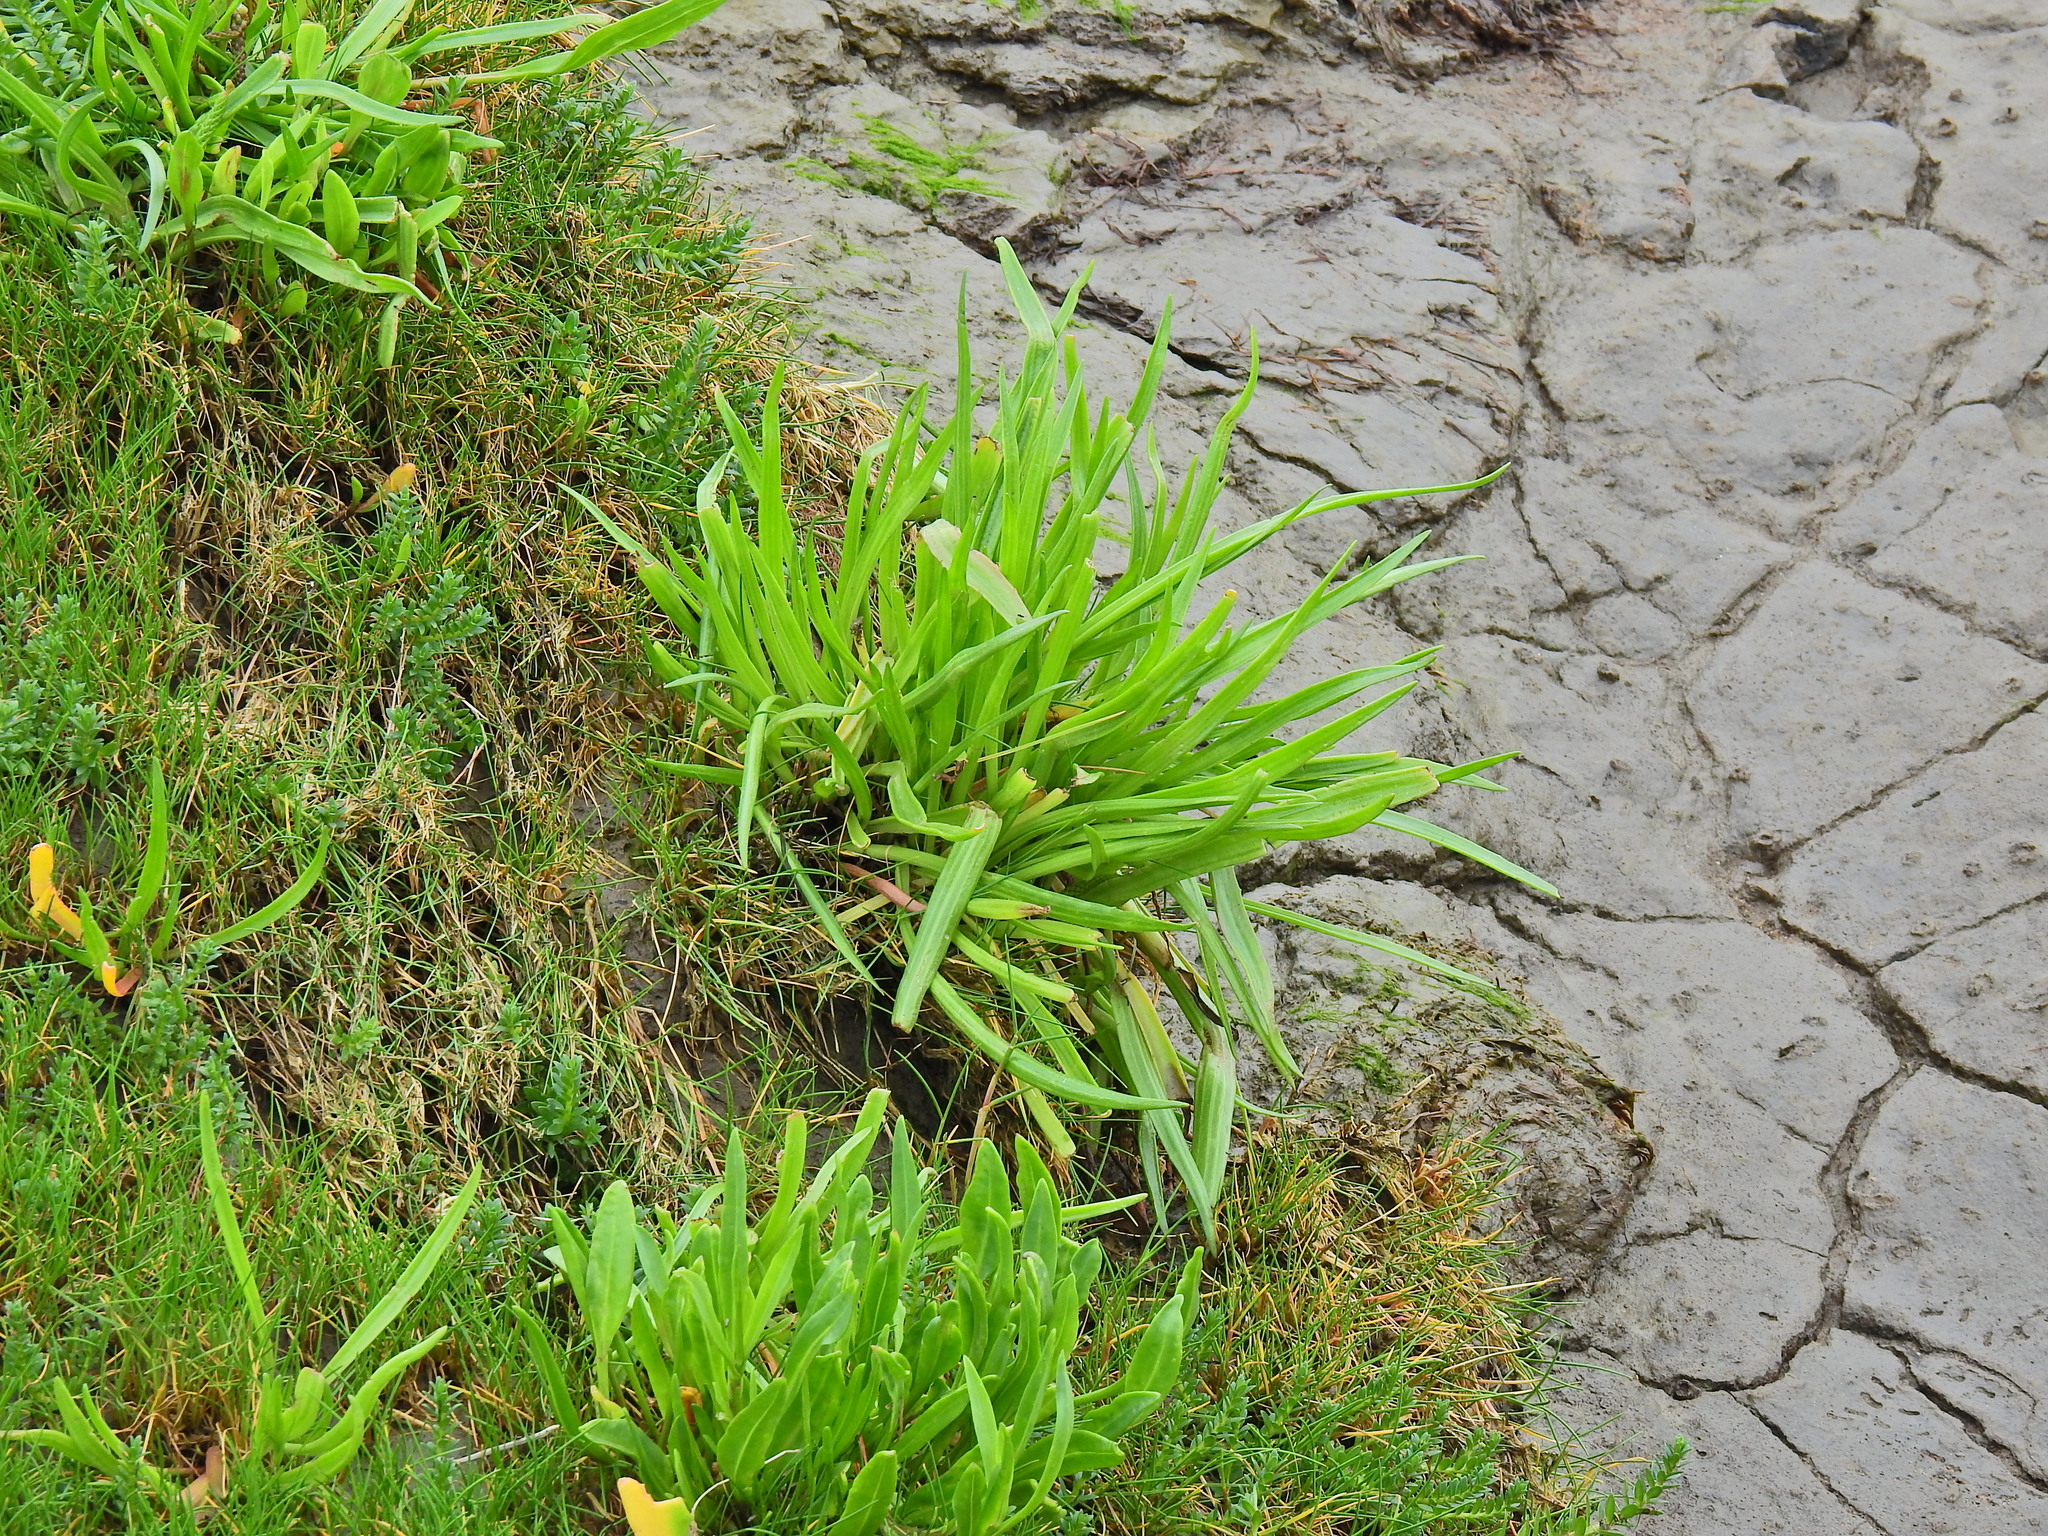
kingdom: Plantae
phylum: Tracheophyta
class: Magnoliopsida
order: Lamiales
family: Plantaginaceae
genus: Plantago
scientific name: Plantago maritima
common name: Sea plantain
